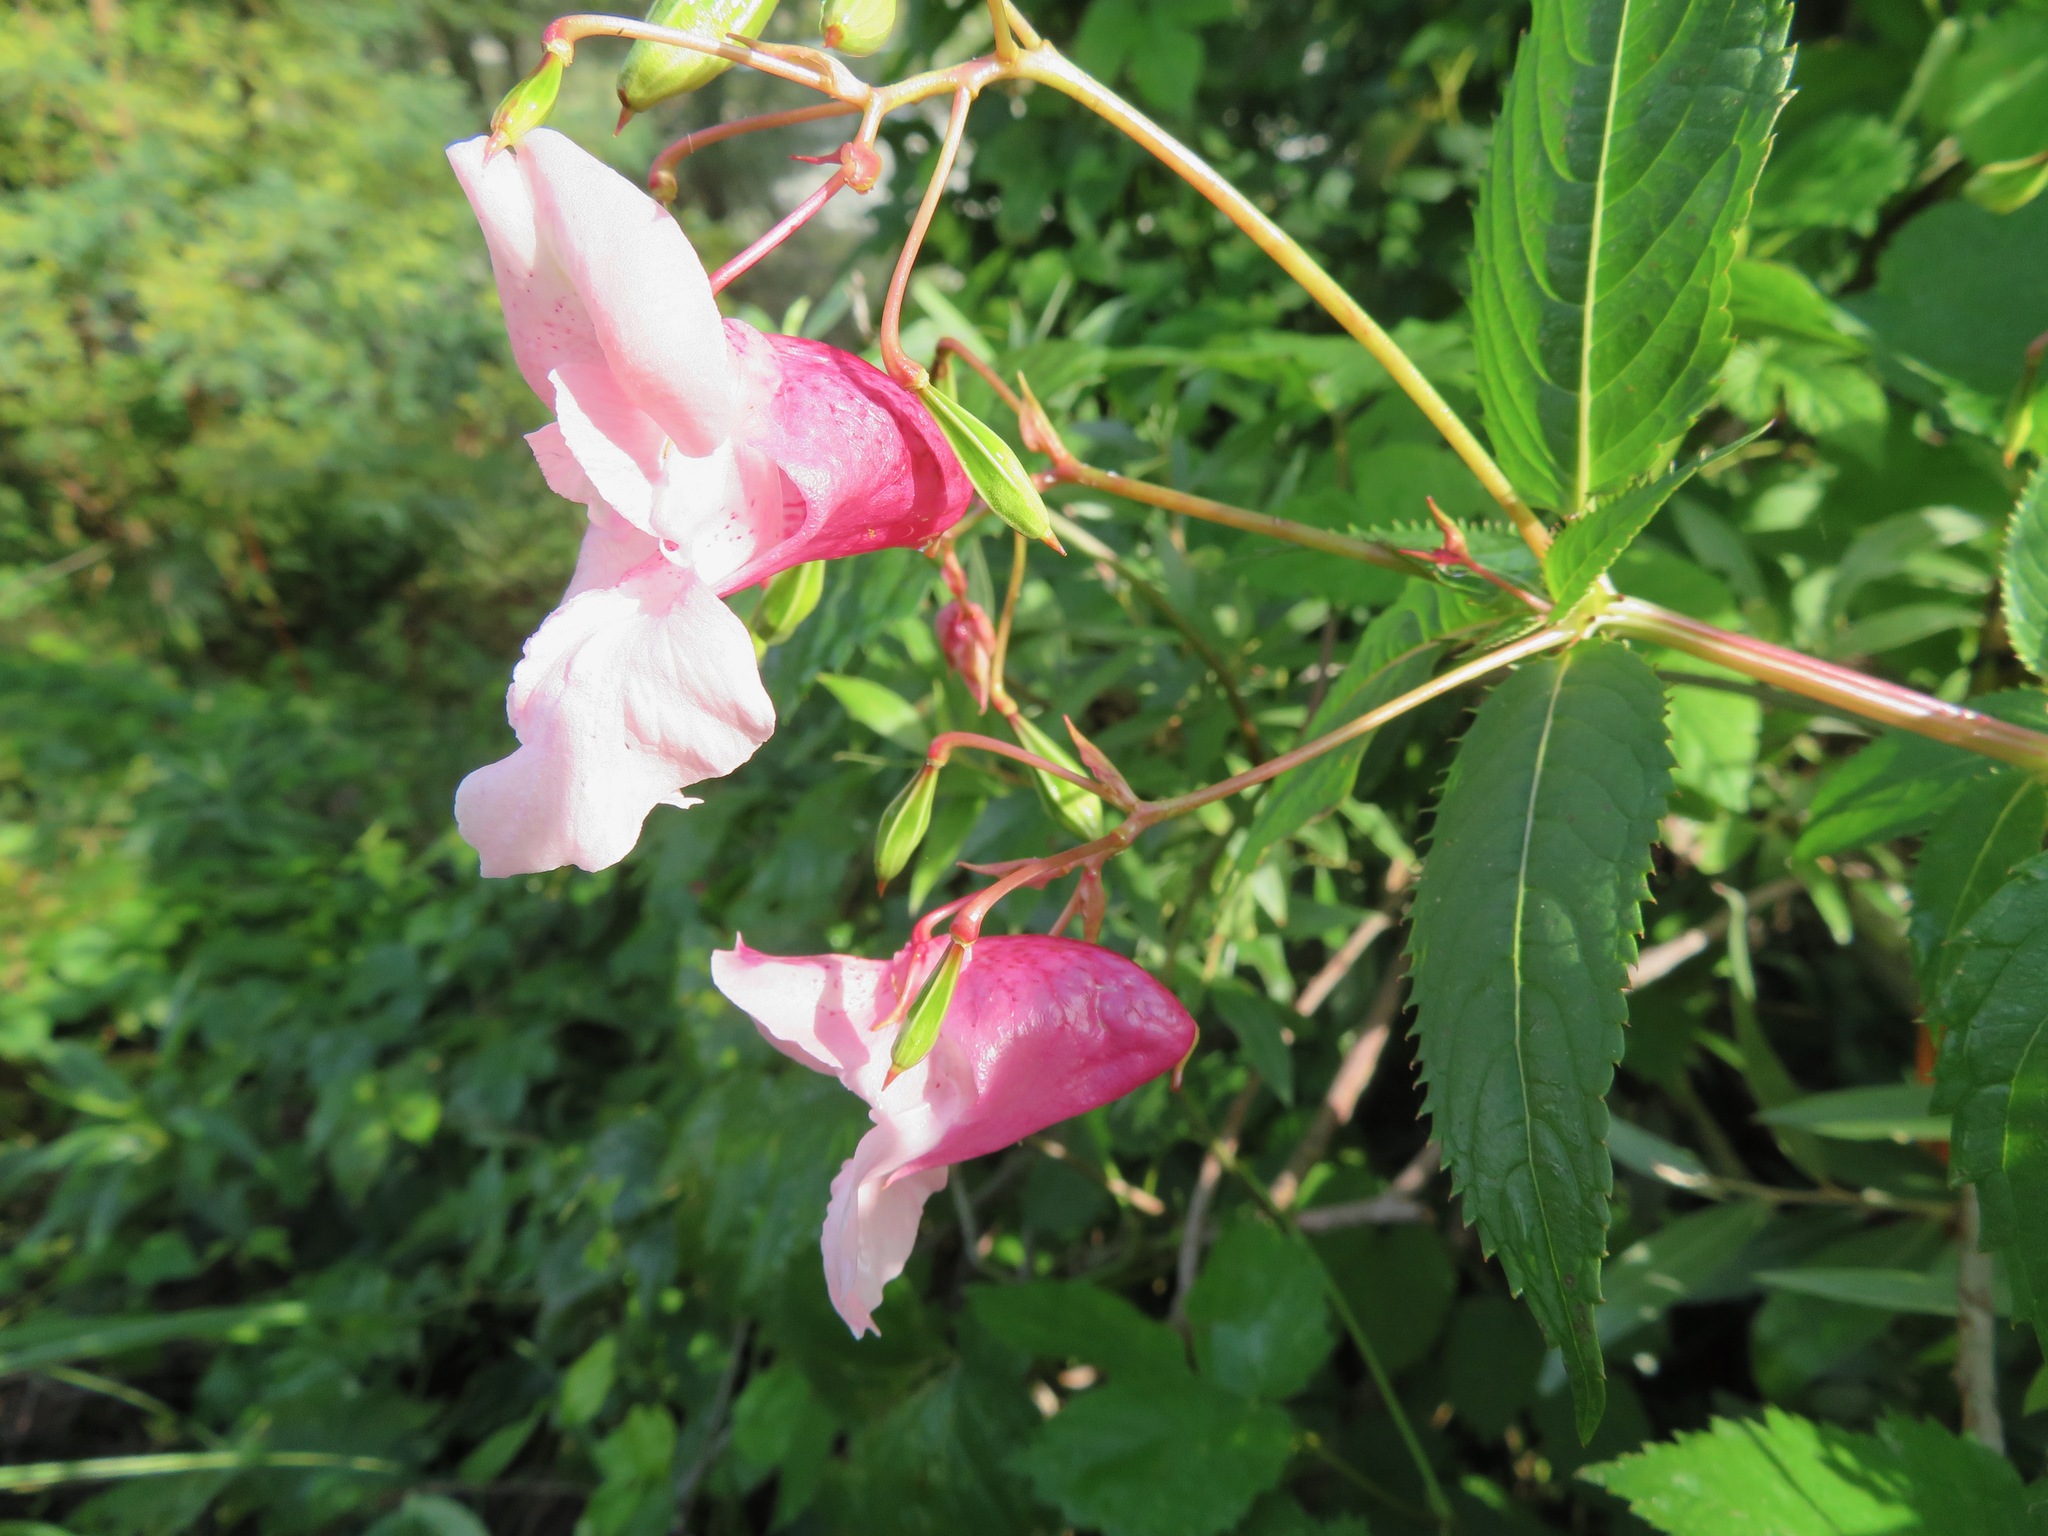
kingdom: Plantae
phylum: Tracheophyta
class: Magnoliopsida
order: Ericales
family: Balsaminaceae
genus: Impatiens
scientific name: Impatiens glandulifera
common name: Himalayan balsam
